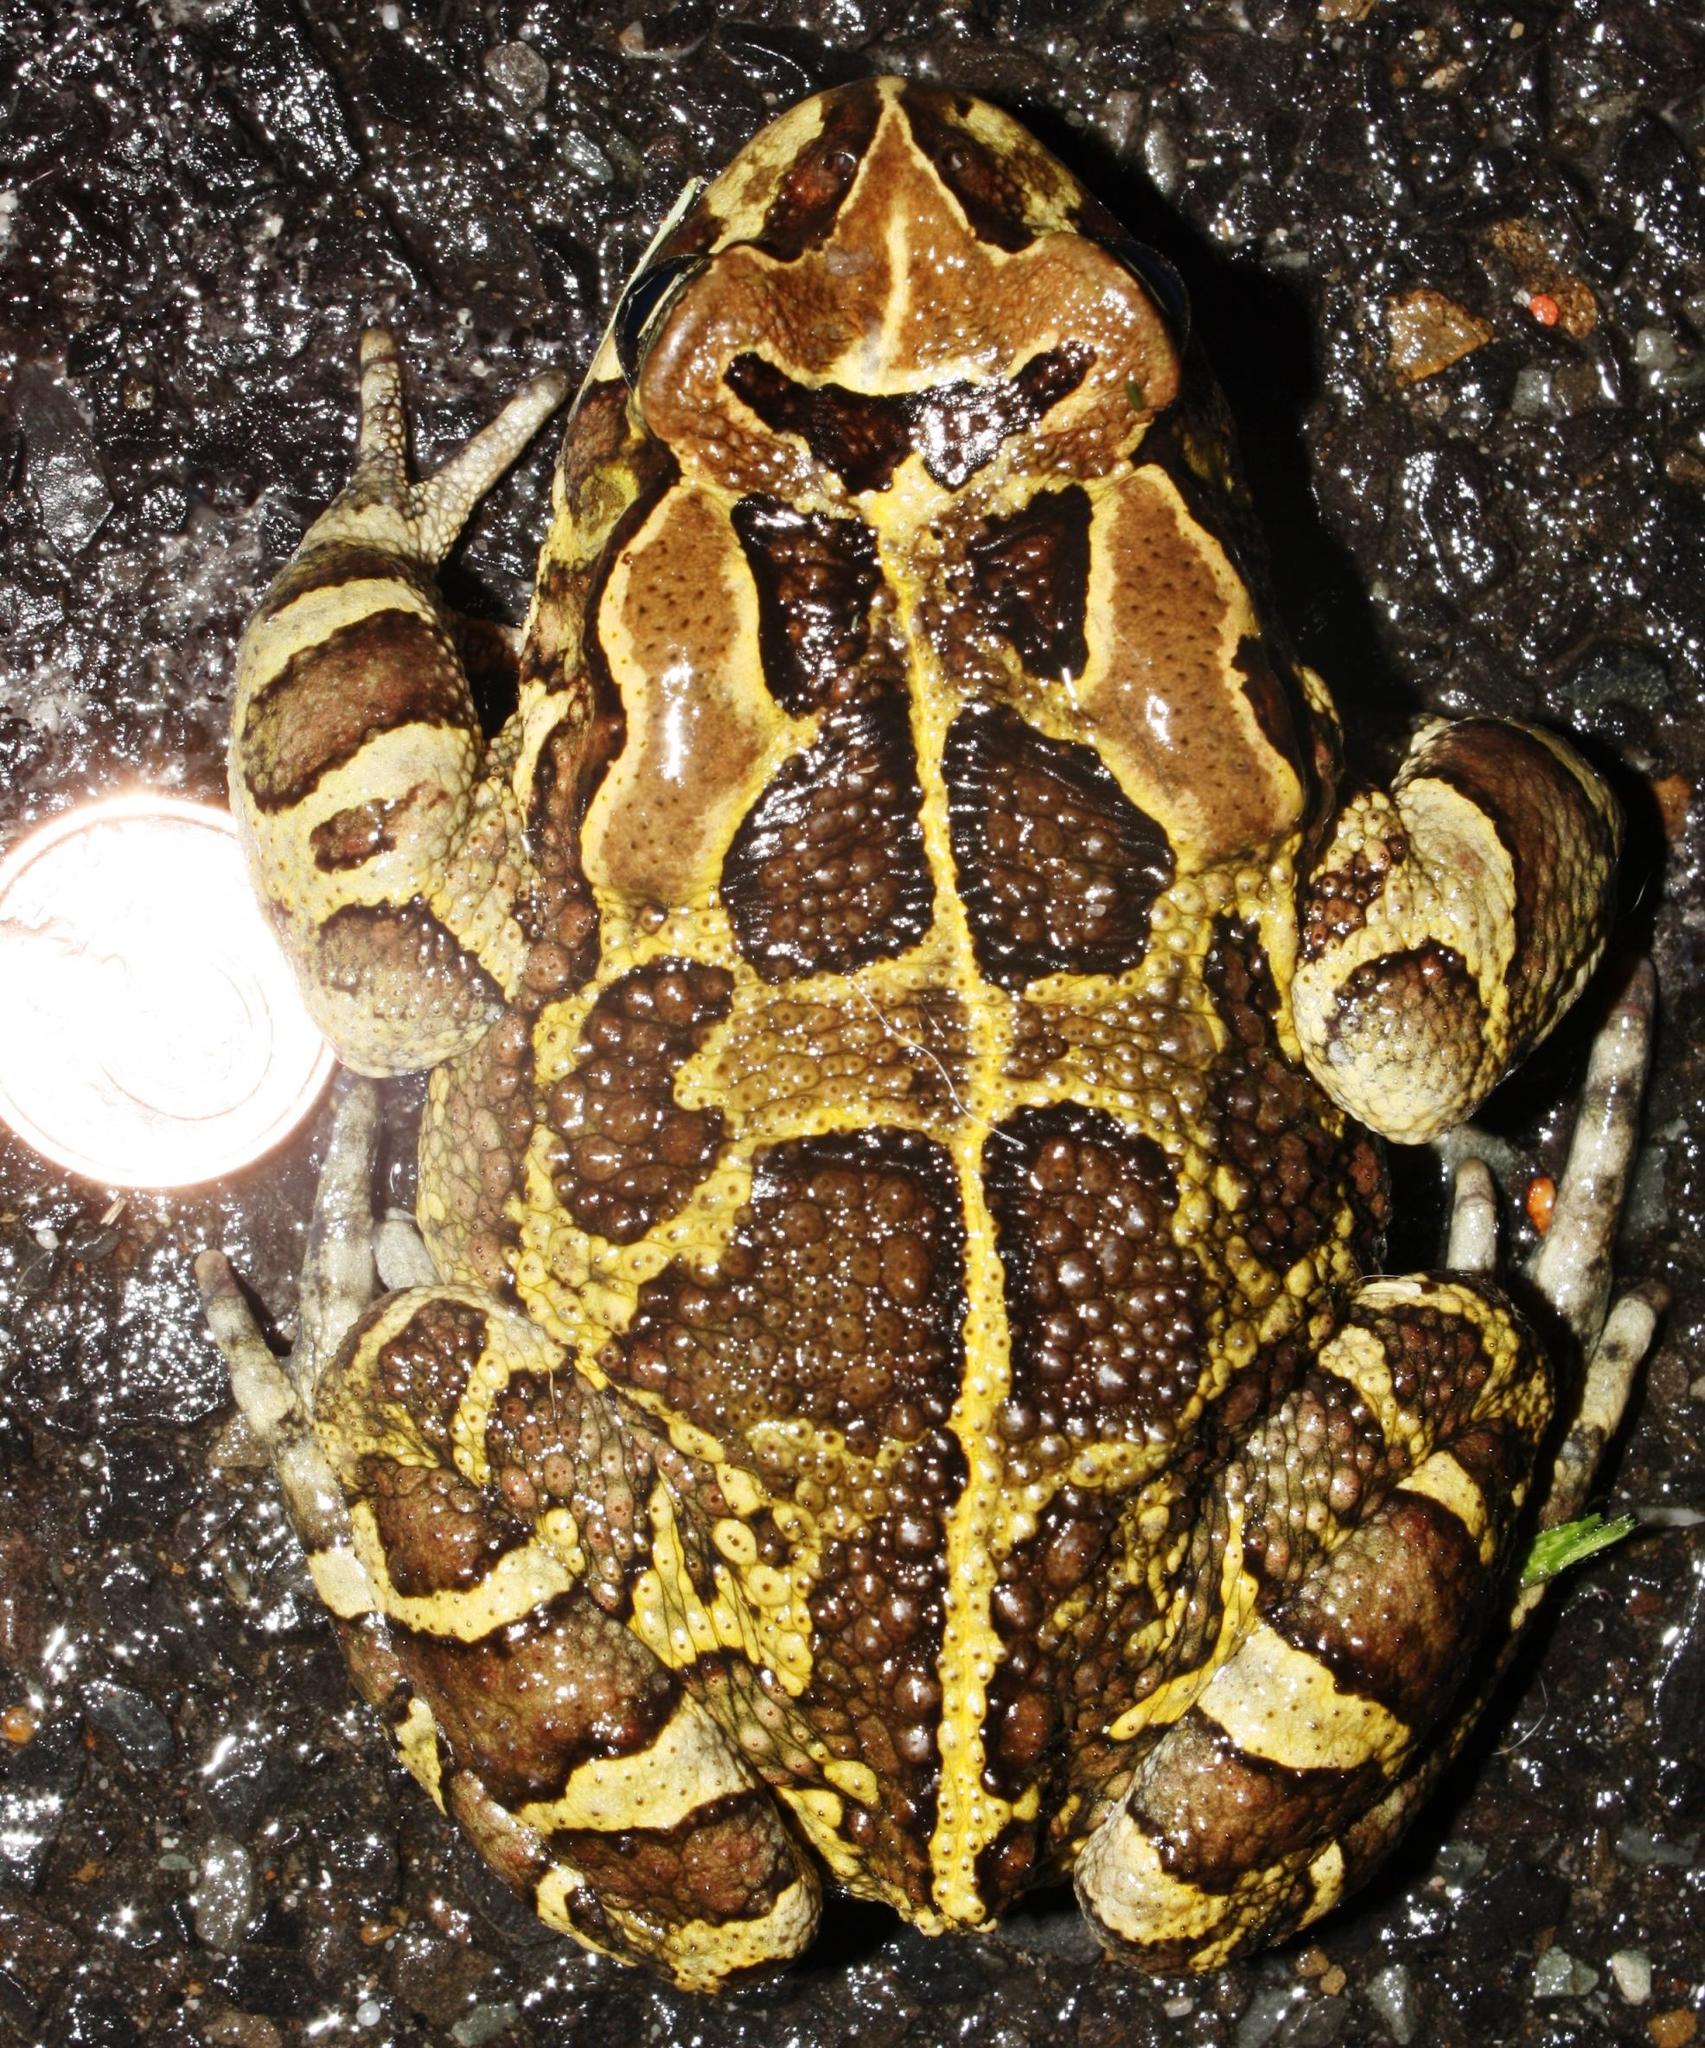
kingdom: Animalia
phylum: Chordata
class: Amphibia
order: Anura
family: Bufonidae
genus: Sclerophrys
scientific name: Sclerophrys pantherina
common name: Panther toad
